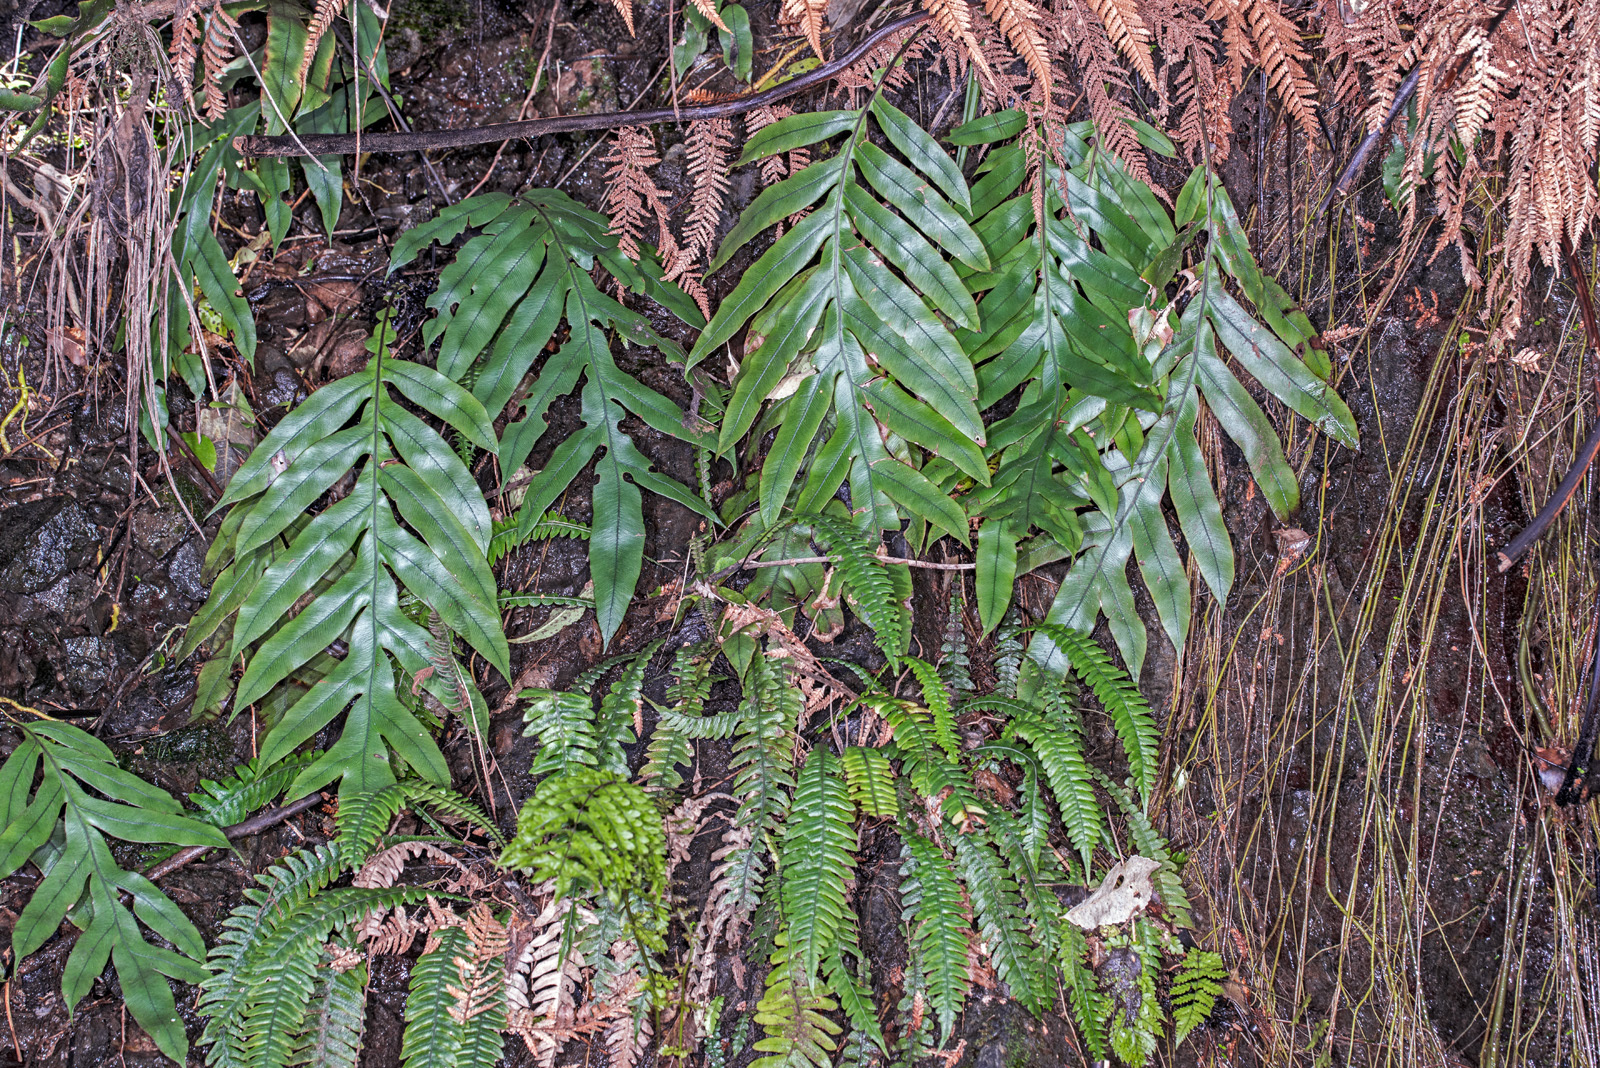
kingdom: Plantae
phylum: Tracheophyta
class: Polypodiopsida
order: Polypodiales
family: Blechnaceae
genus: Austroblechnum
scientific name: Austroblechnum colensoi
